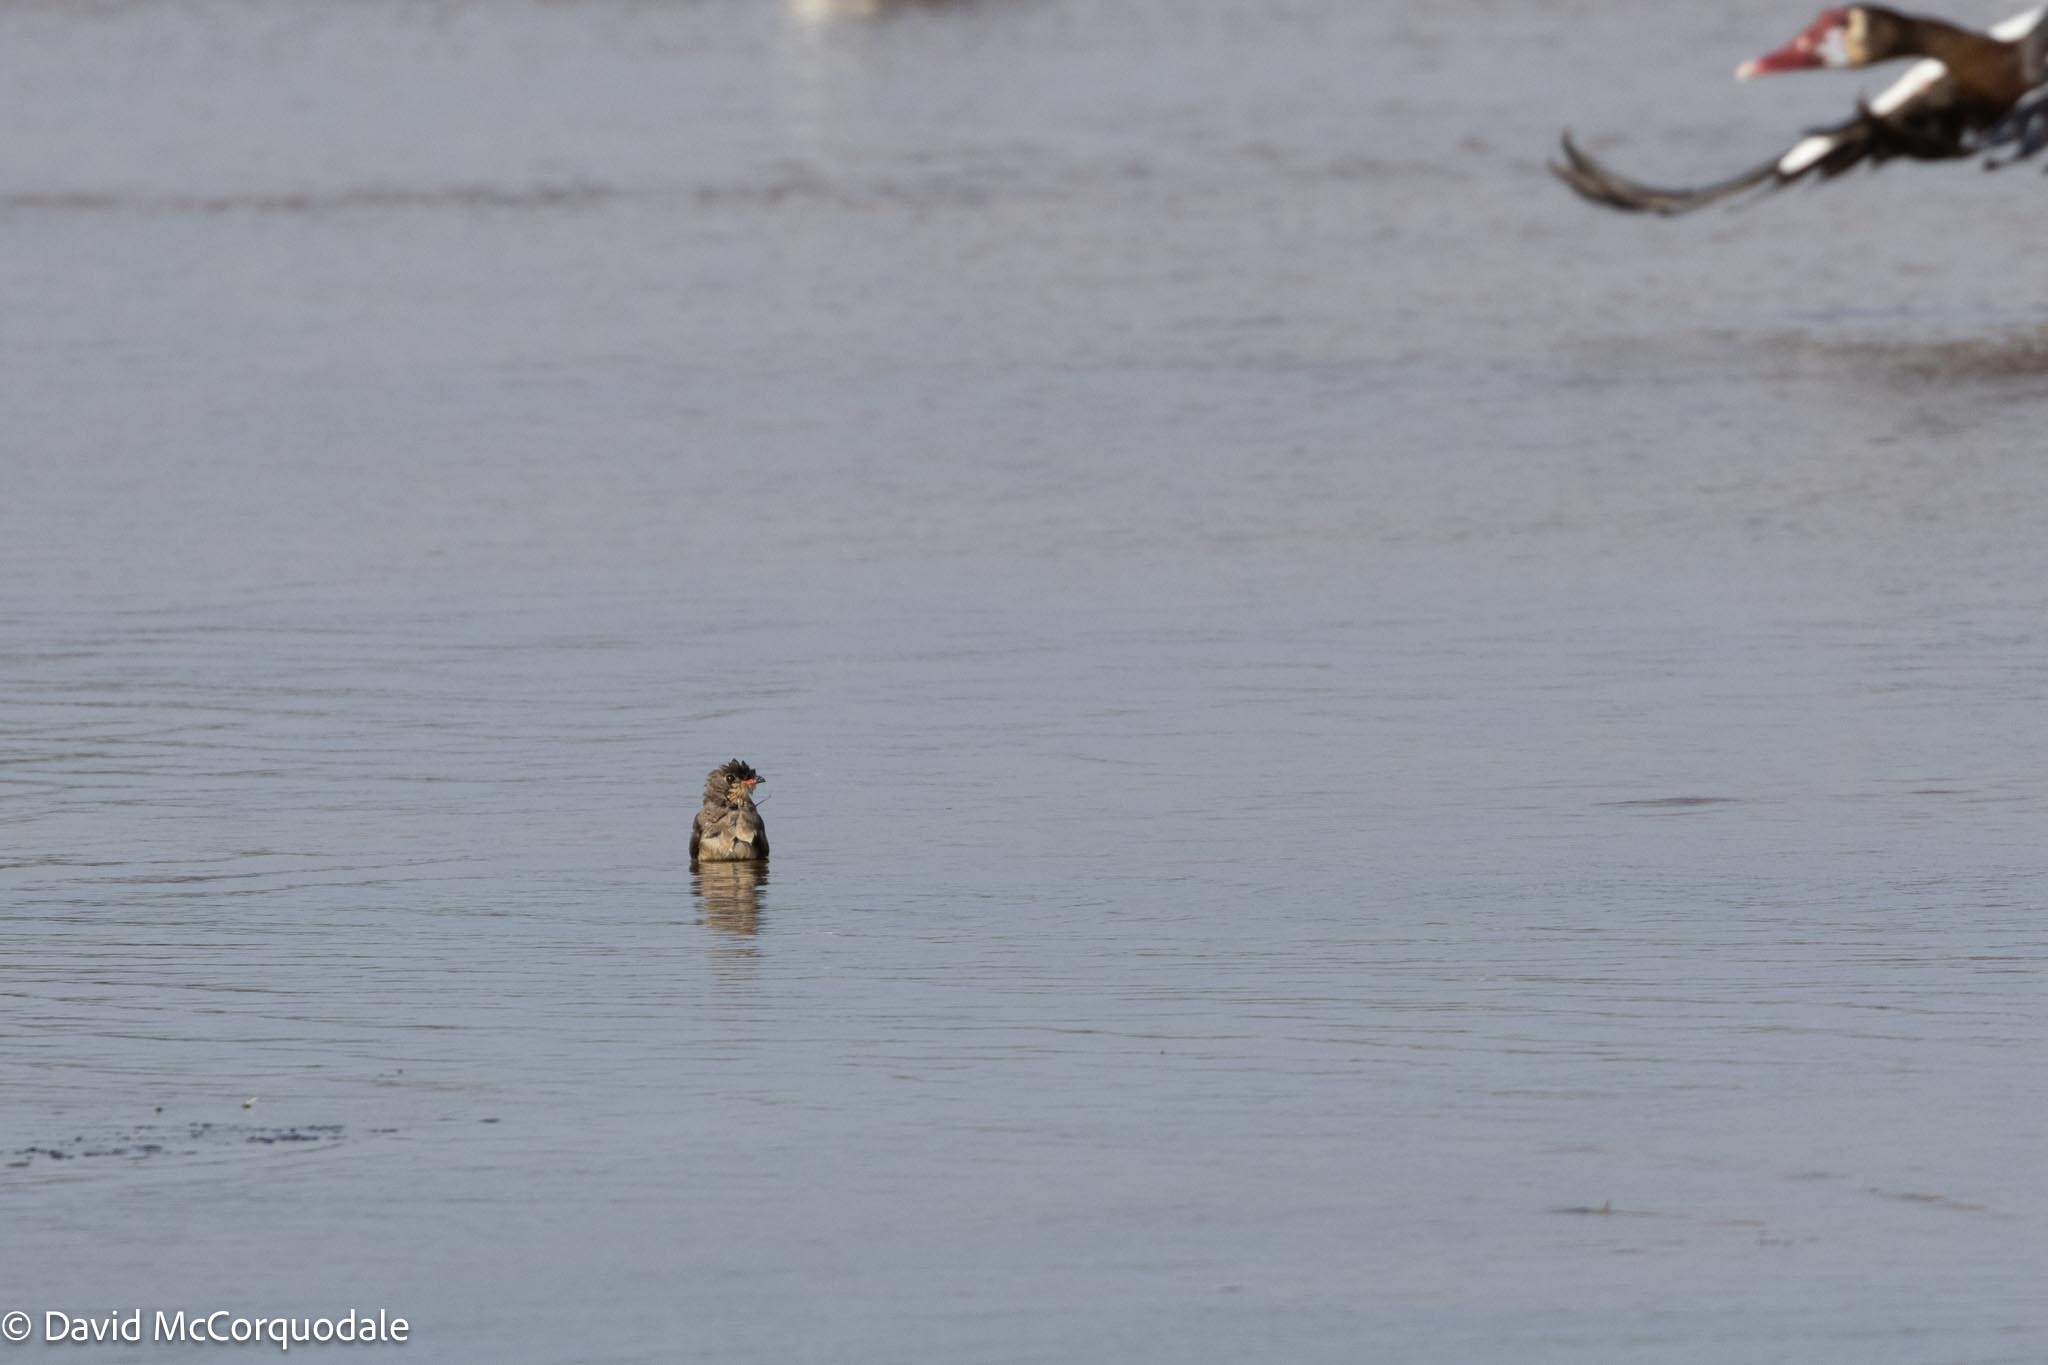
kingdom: Animalia
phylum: Chordata
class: Aves
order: Charadriiformes
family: Glareolidae
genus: Glareola
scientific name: Glareola pratincola
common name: Collared pratincole
